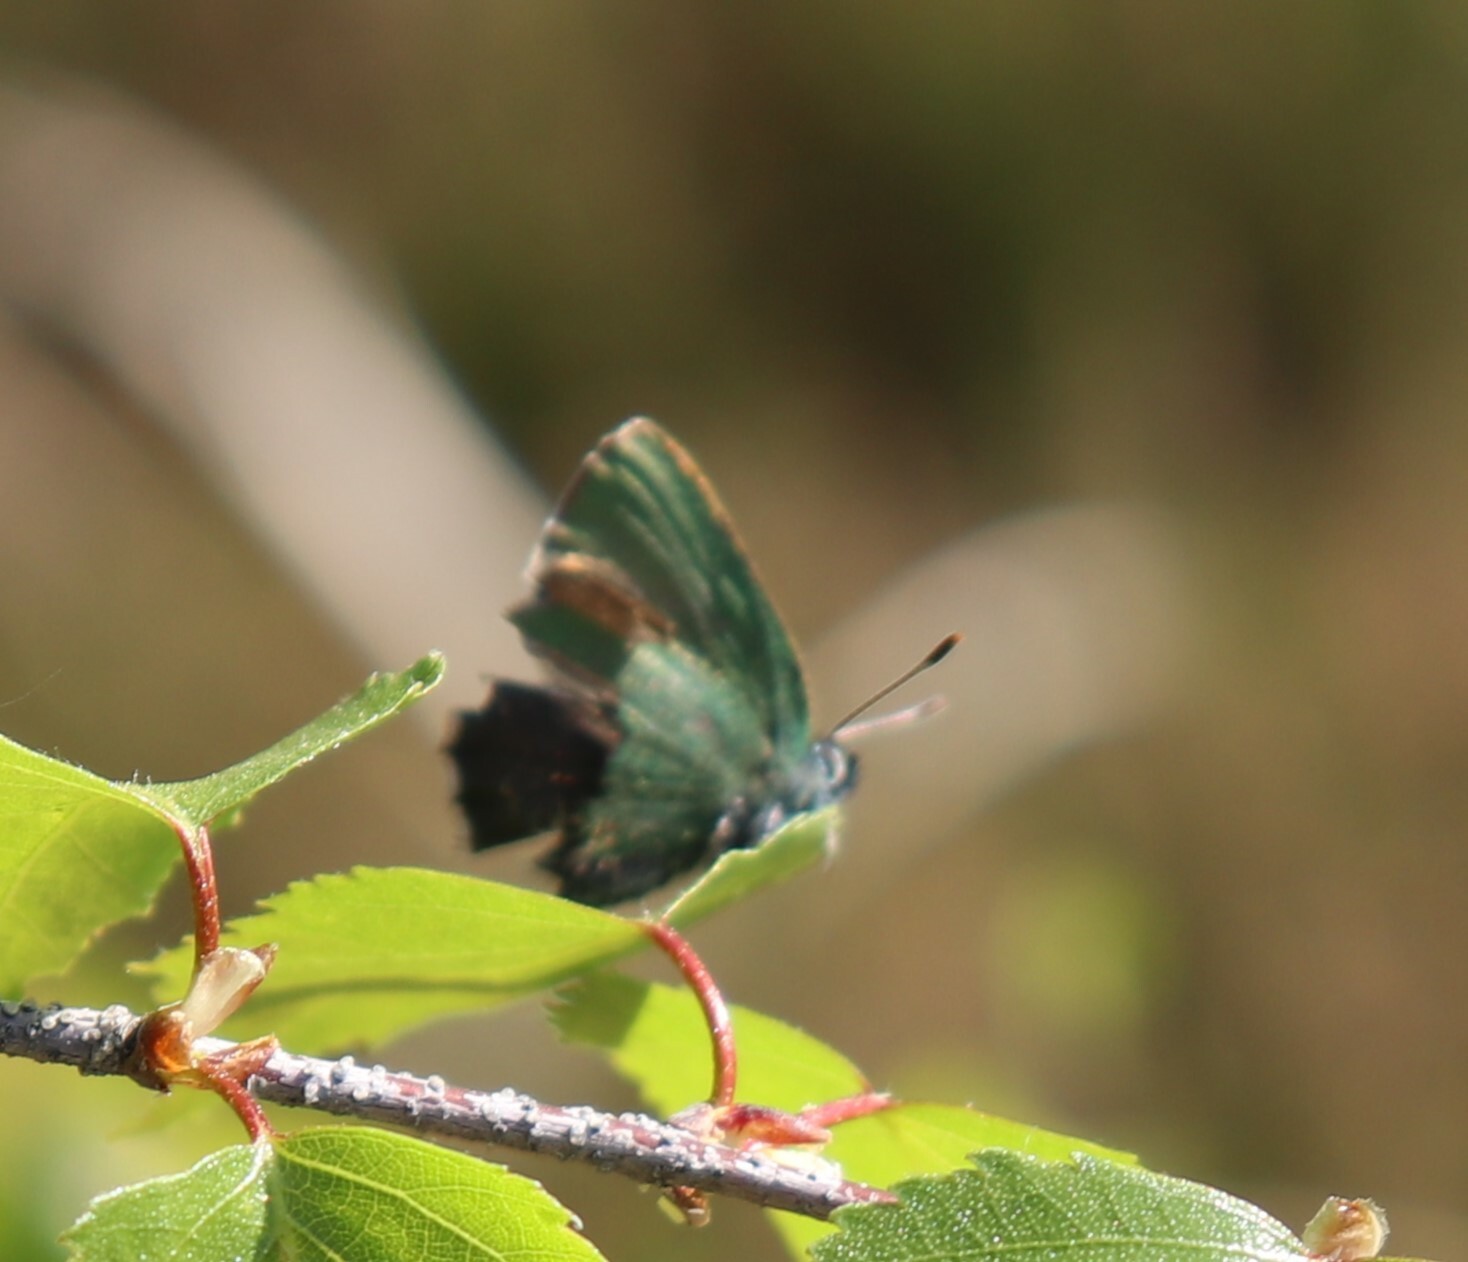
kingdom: Animalia
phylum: Arthropoda
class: Insecta
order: Lepidoptera
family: Lycaenidae
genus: Callophrys
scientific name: Callophrys rubi
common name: Green hairstreak
